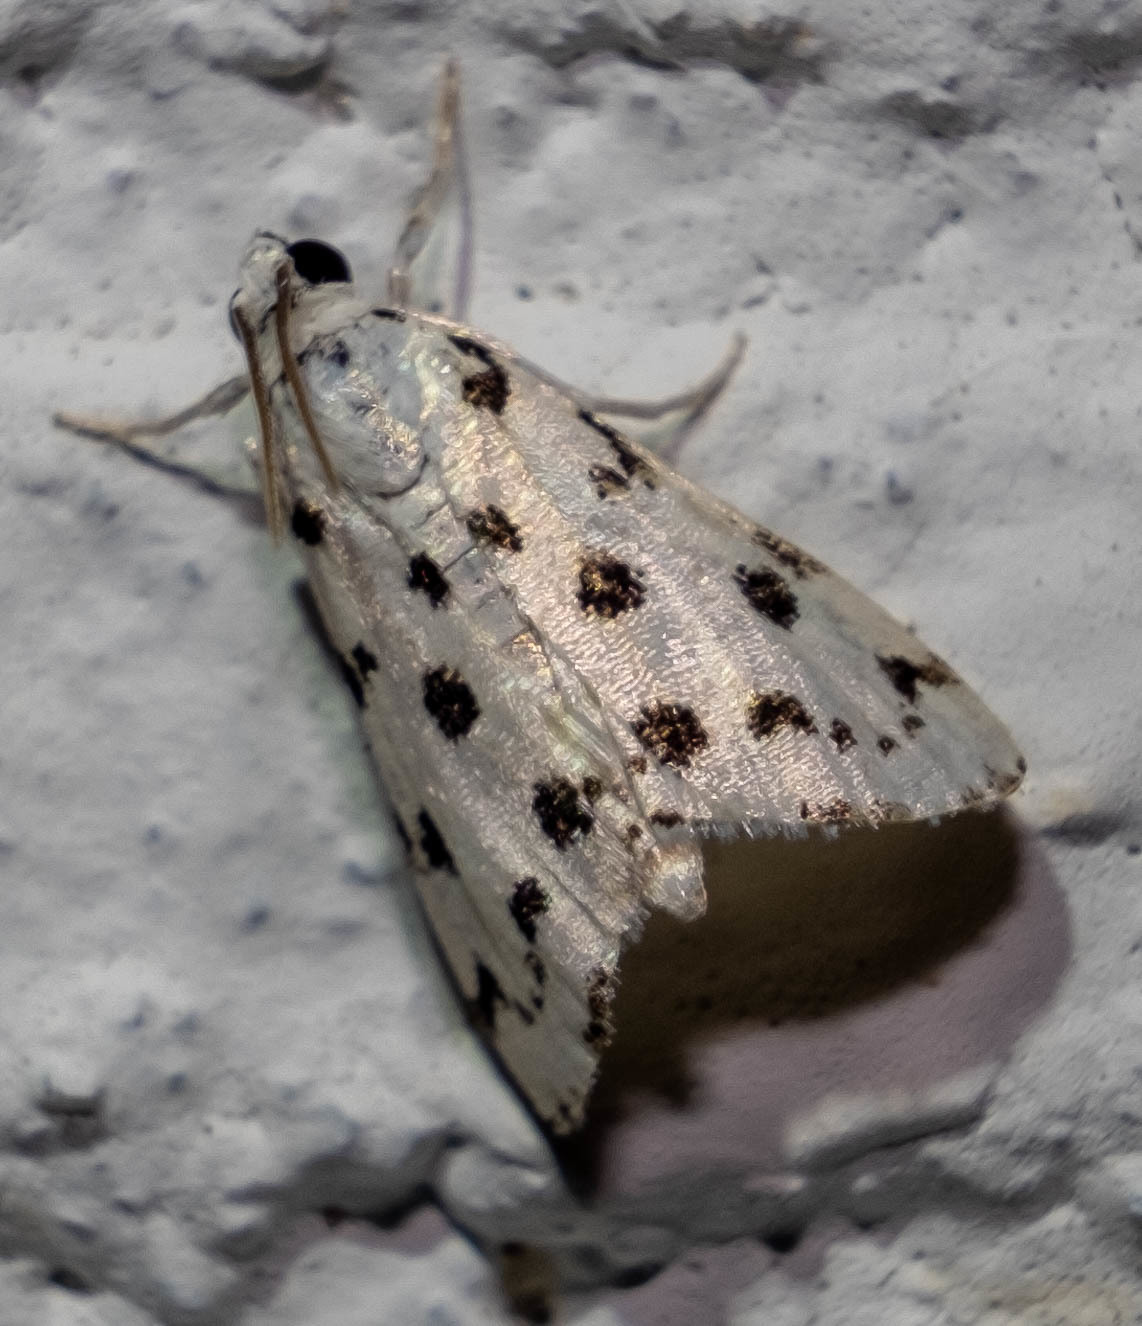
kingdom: Animalia
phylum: Arthropoda
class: Insecta
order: Lepidoptera
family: Crambidae
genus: Eustixia
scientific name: Eustixia pupula
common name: American cabbage pearl
